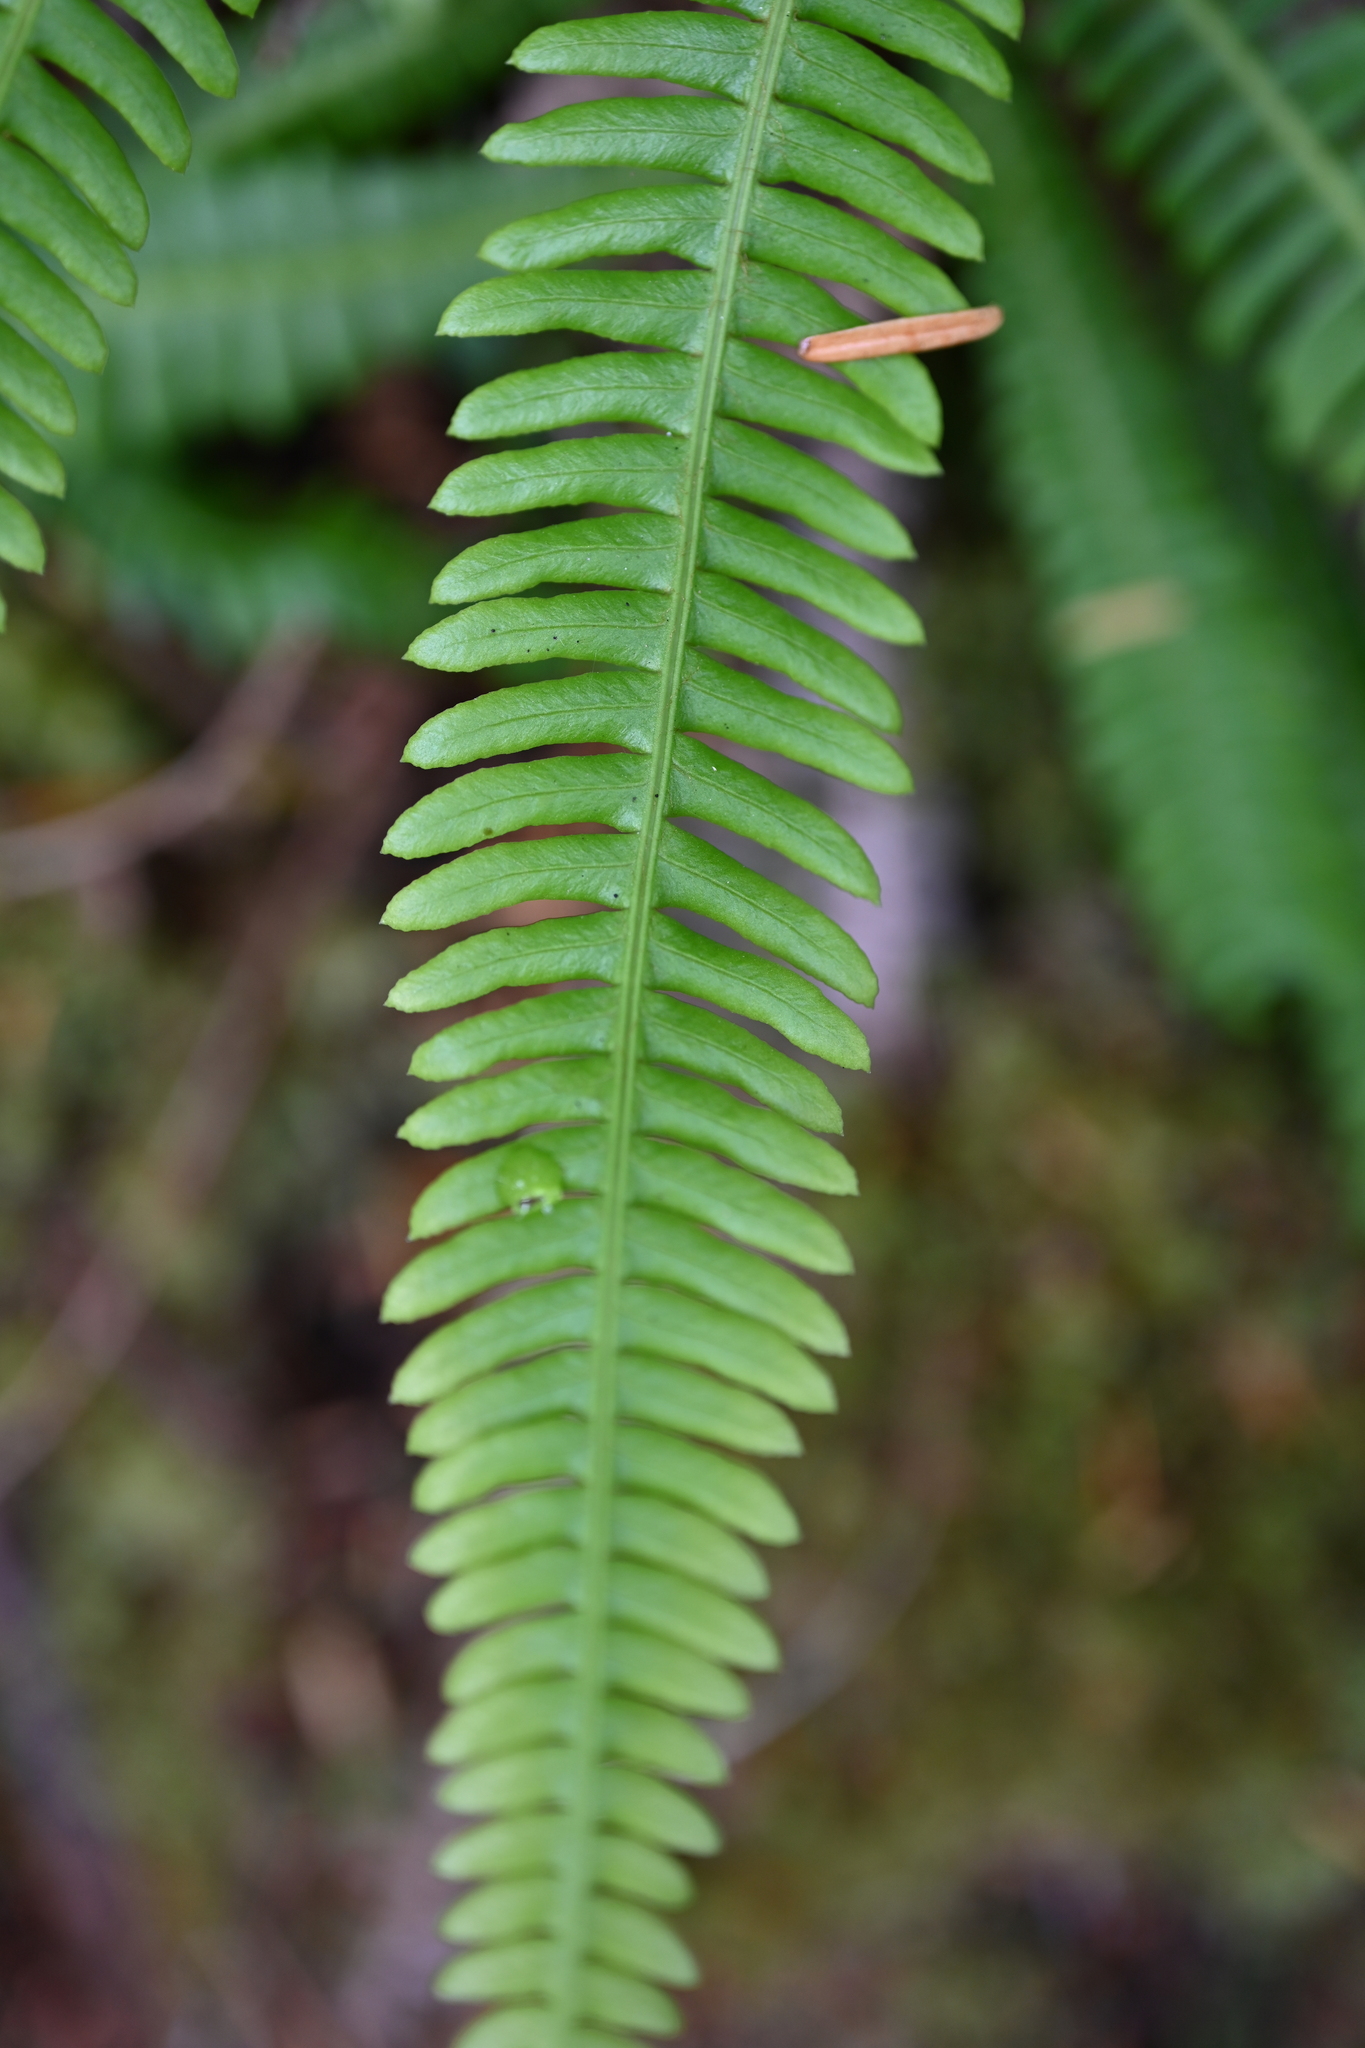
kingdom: Plantae
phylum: Tracheophyta
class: Polypodiopsida
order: Polypodiales
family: Blechnaceae
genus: Struthiopteris
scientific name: Struthiopteris spicant
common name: Deer fern
